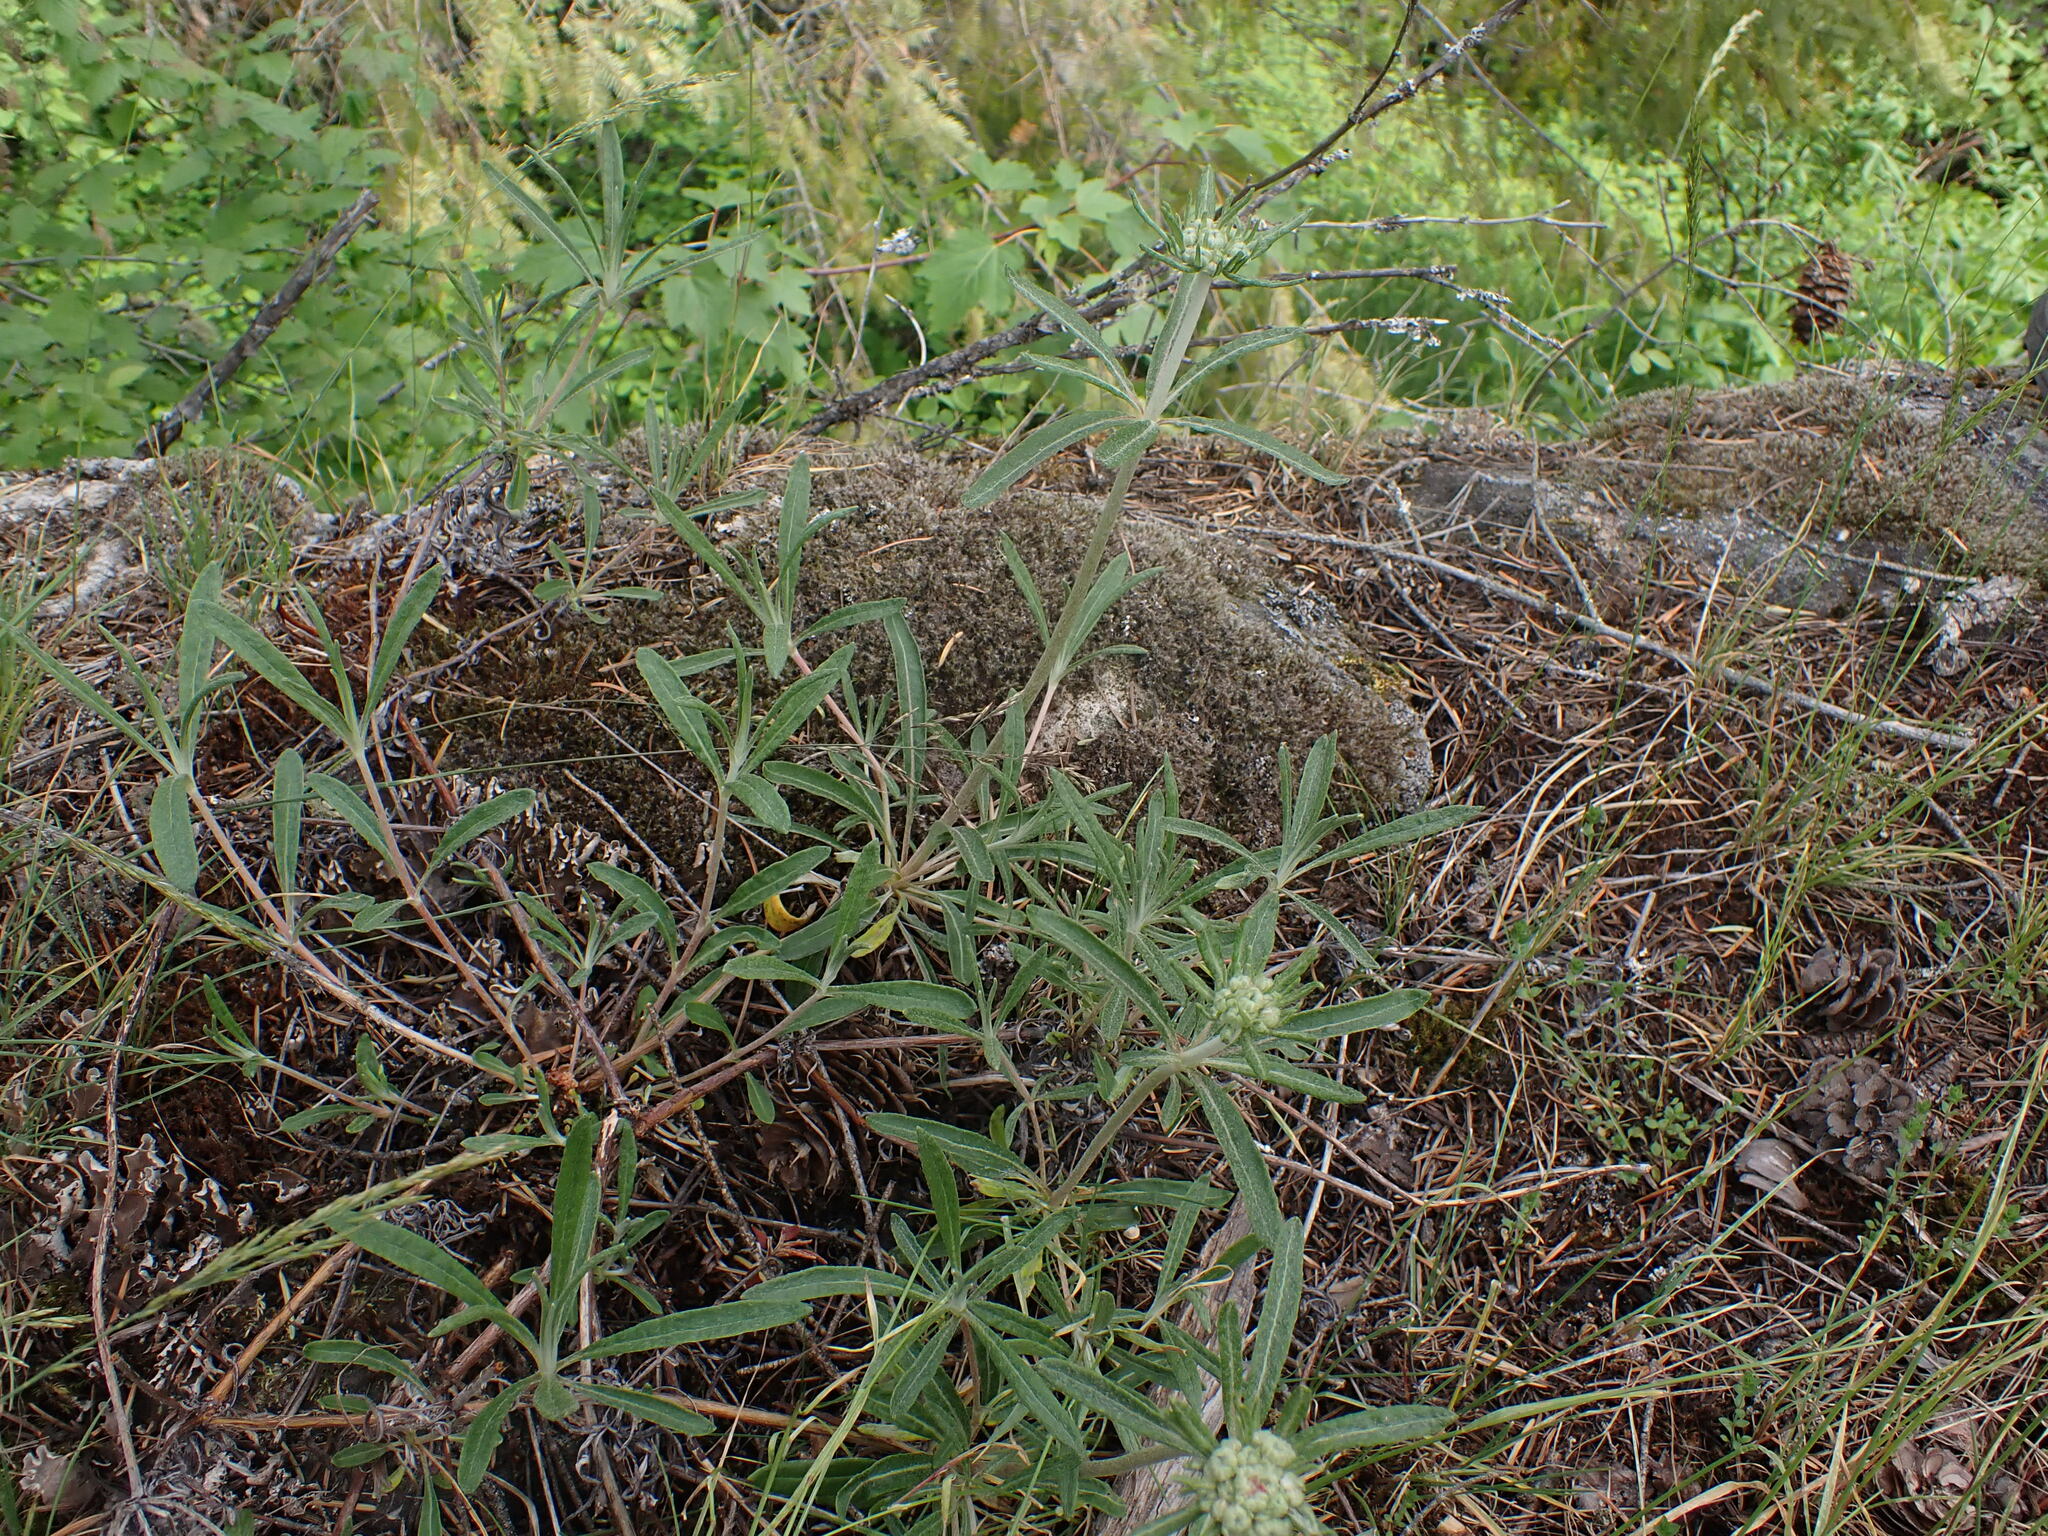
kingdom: Plantae
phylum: Tracheophyta
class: Magnoliopsida
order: Caryophyllales
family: Polygonaceae
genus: Eriogonum
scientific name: Eriogonum heracleoides
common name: Wyeth's buckwheat
